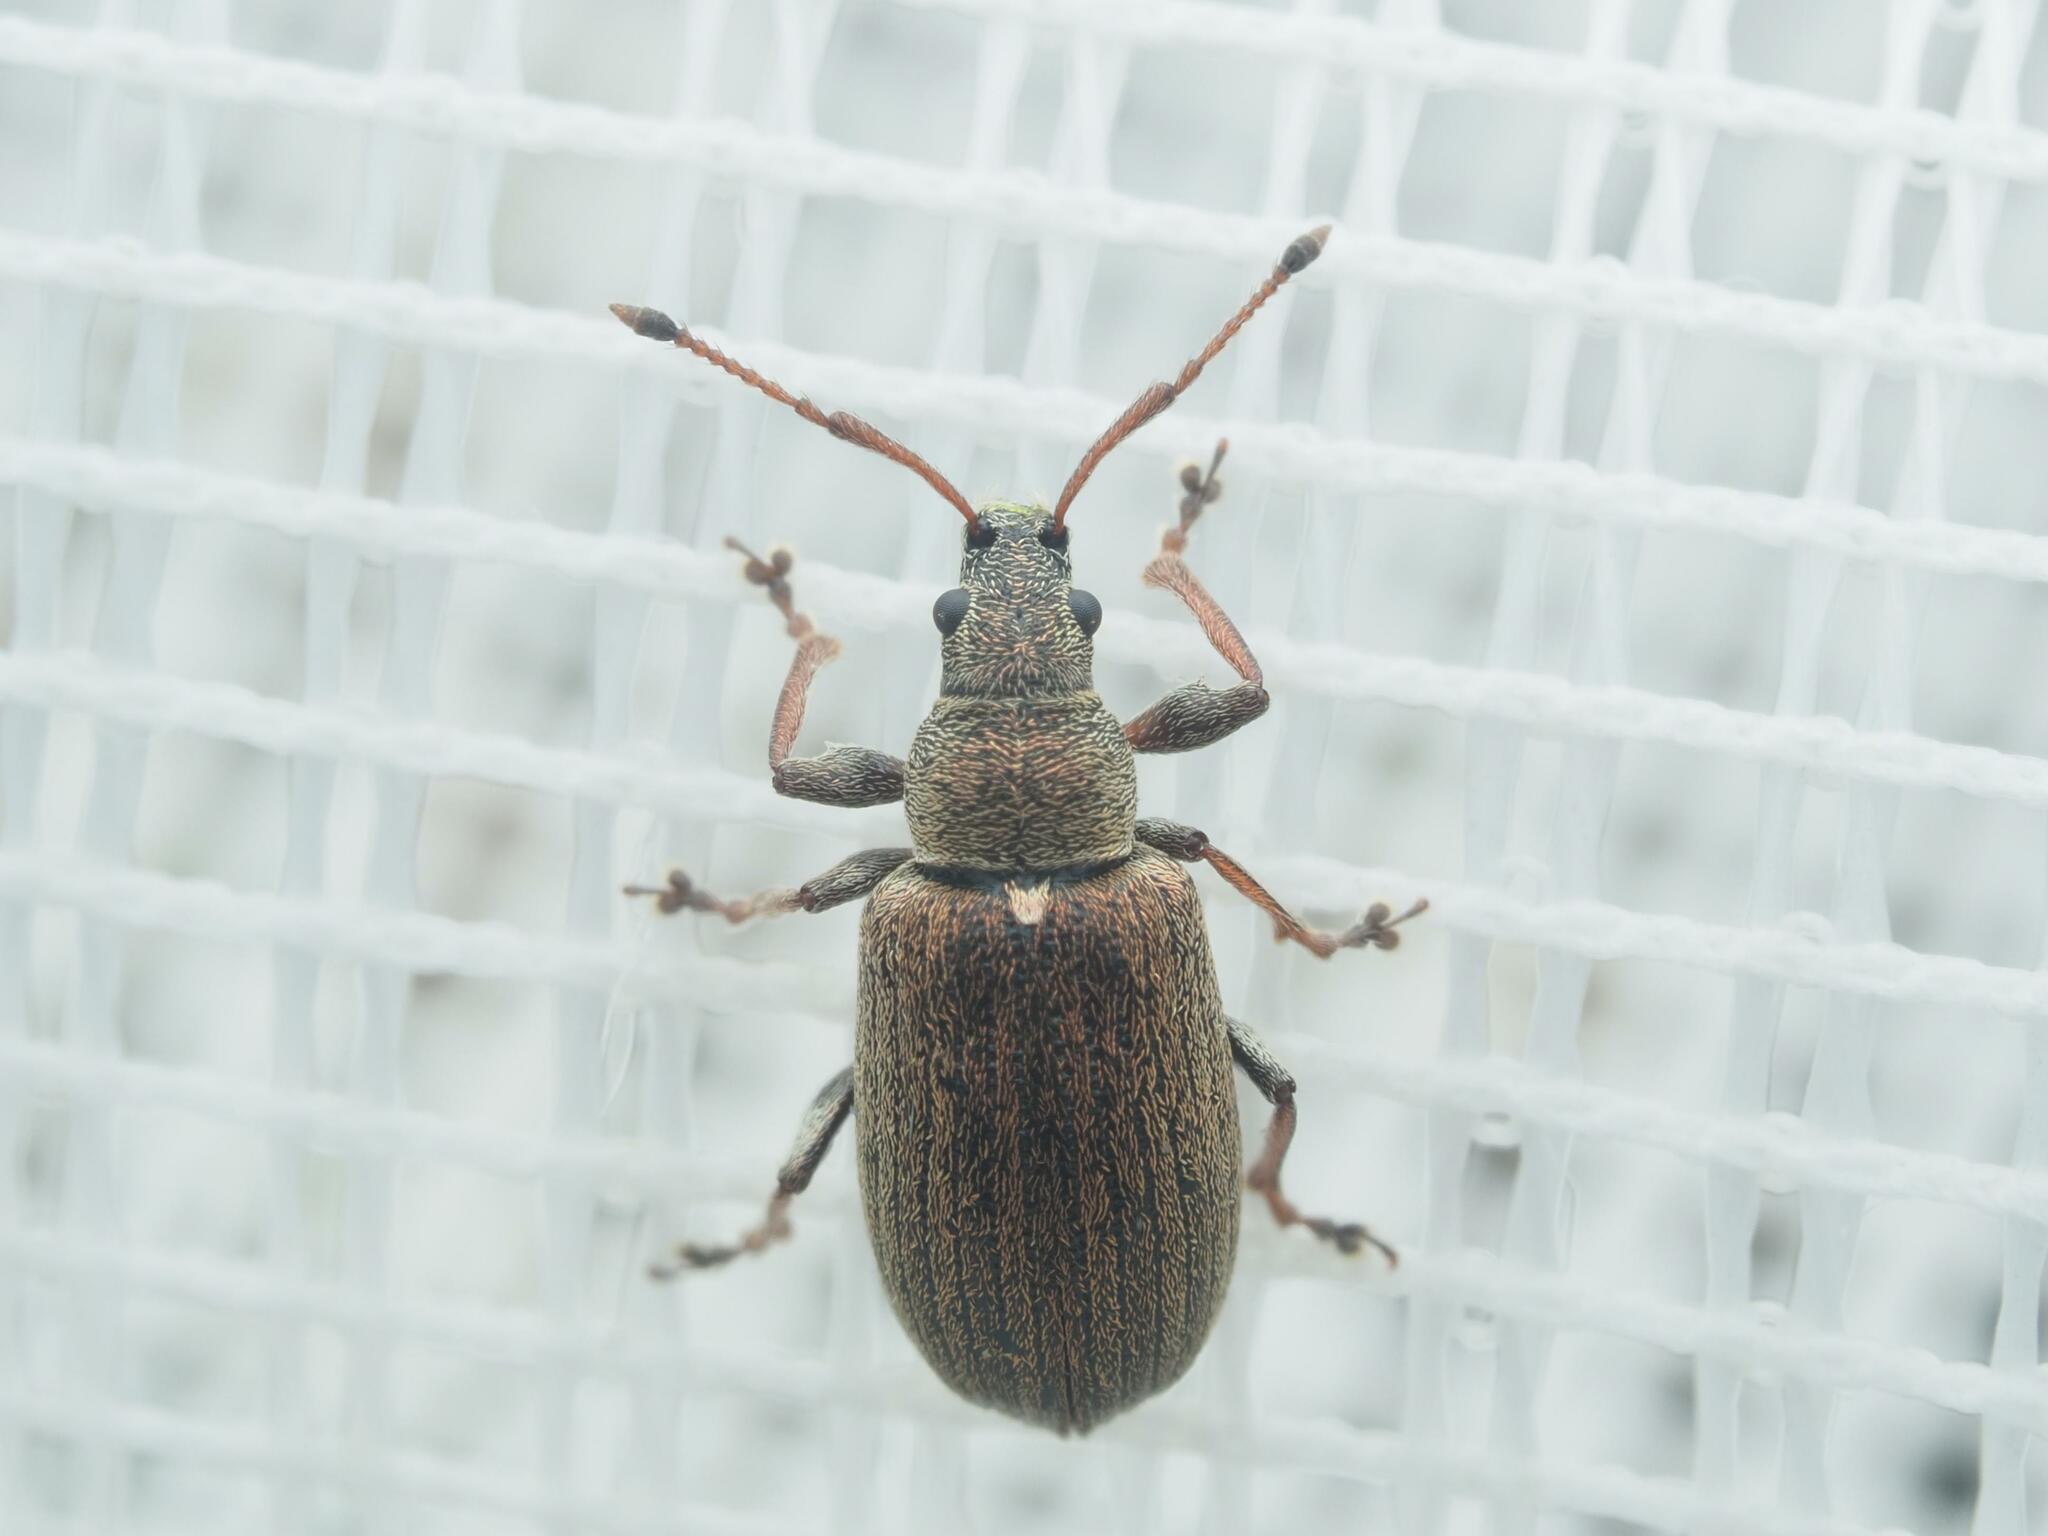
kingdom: Animalia
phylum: Arthropoda
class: Insecta
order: Coleoptera
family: Curculionidae
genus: Phyllobius
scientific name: Phyllobius pyri
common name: Common leaf weevil
